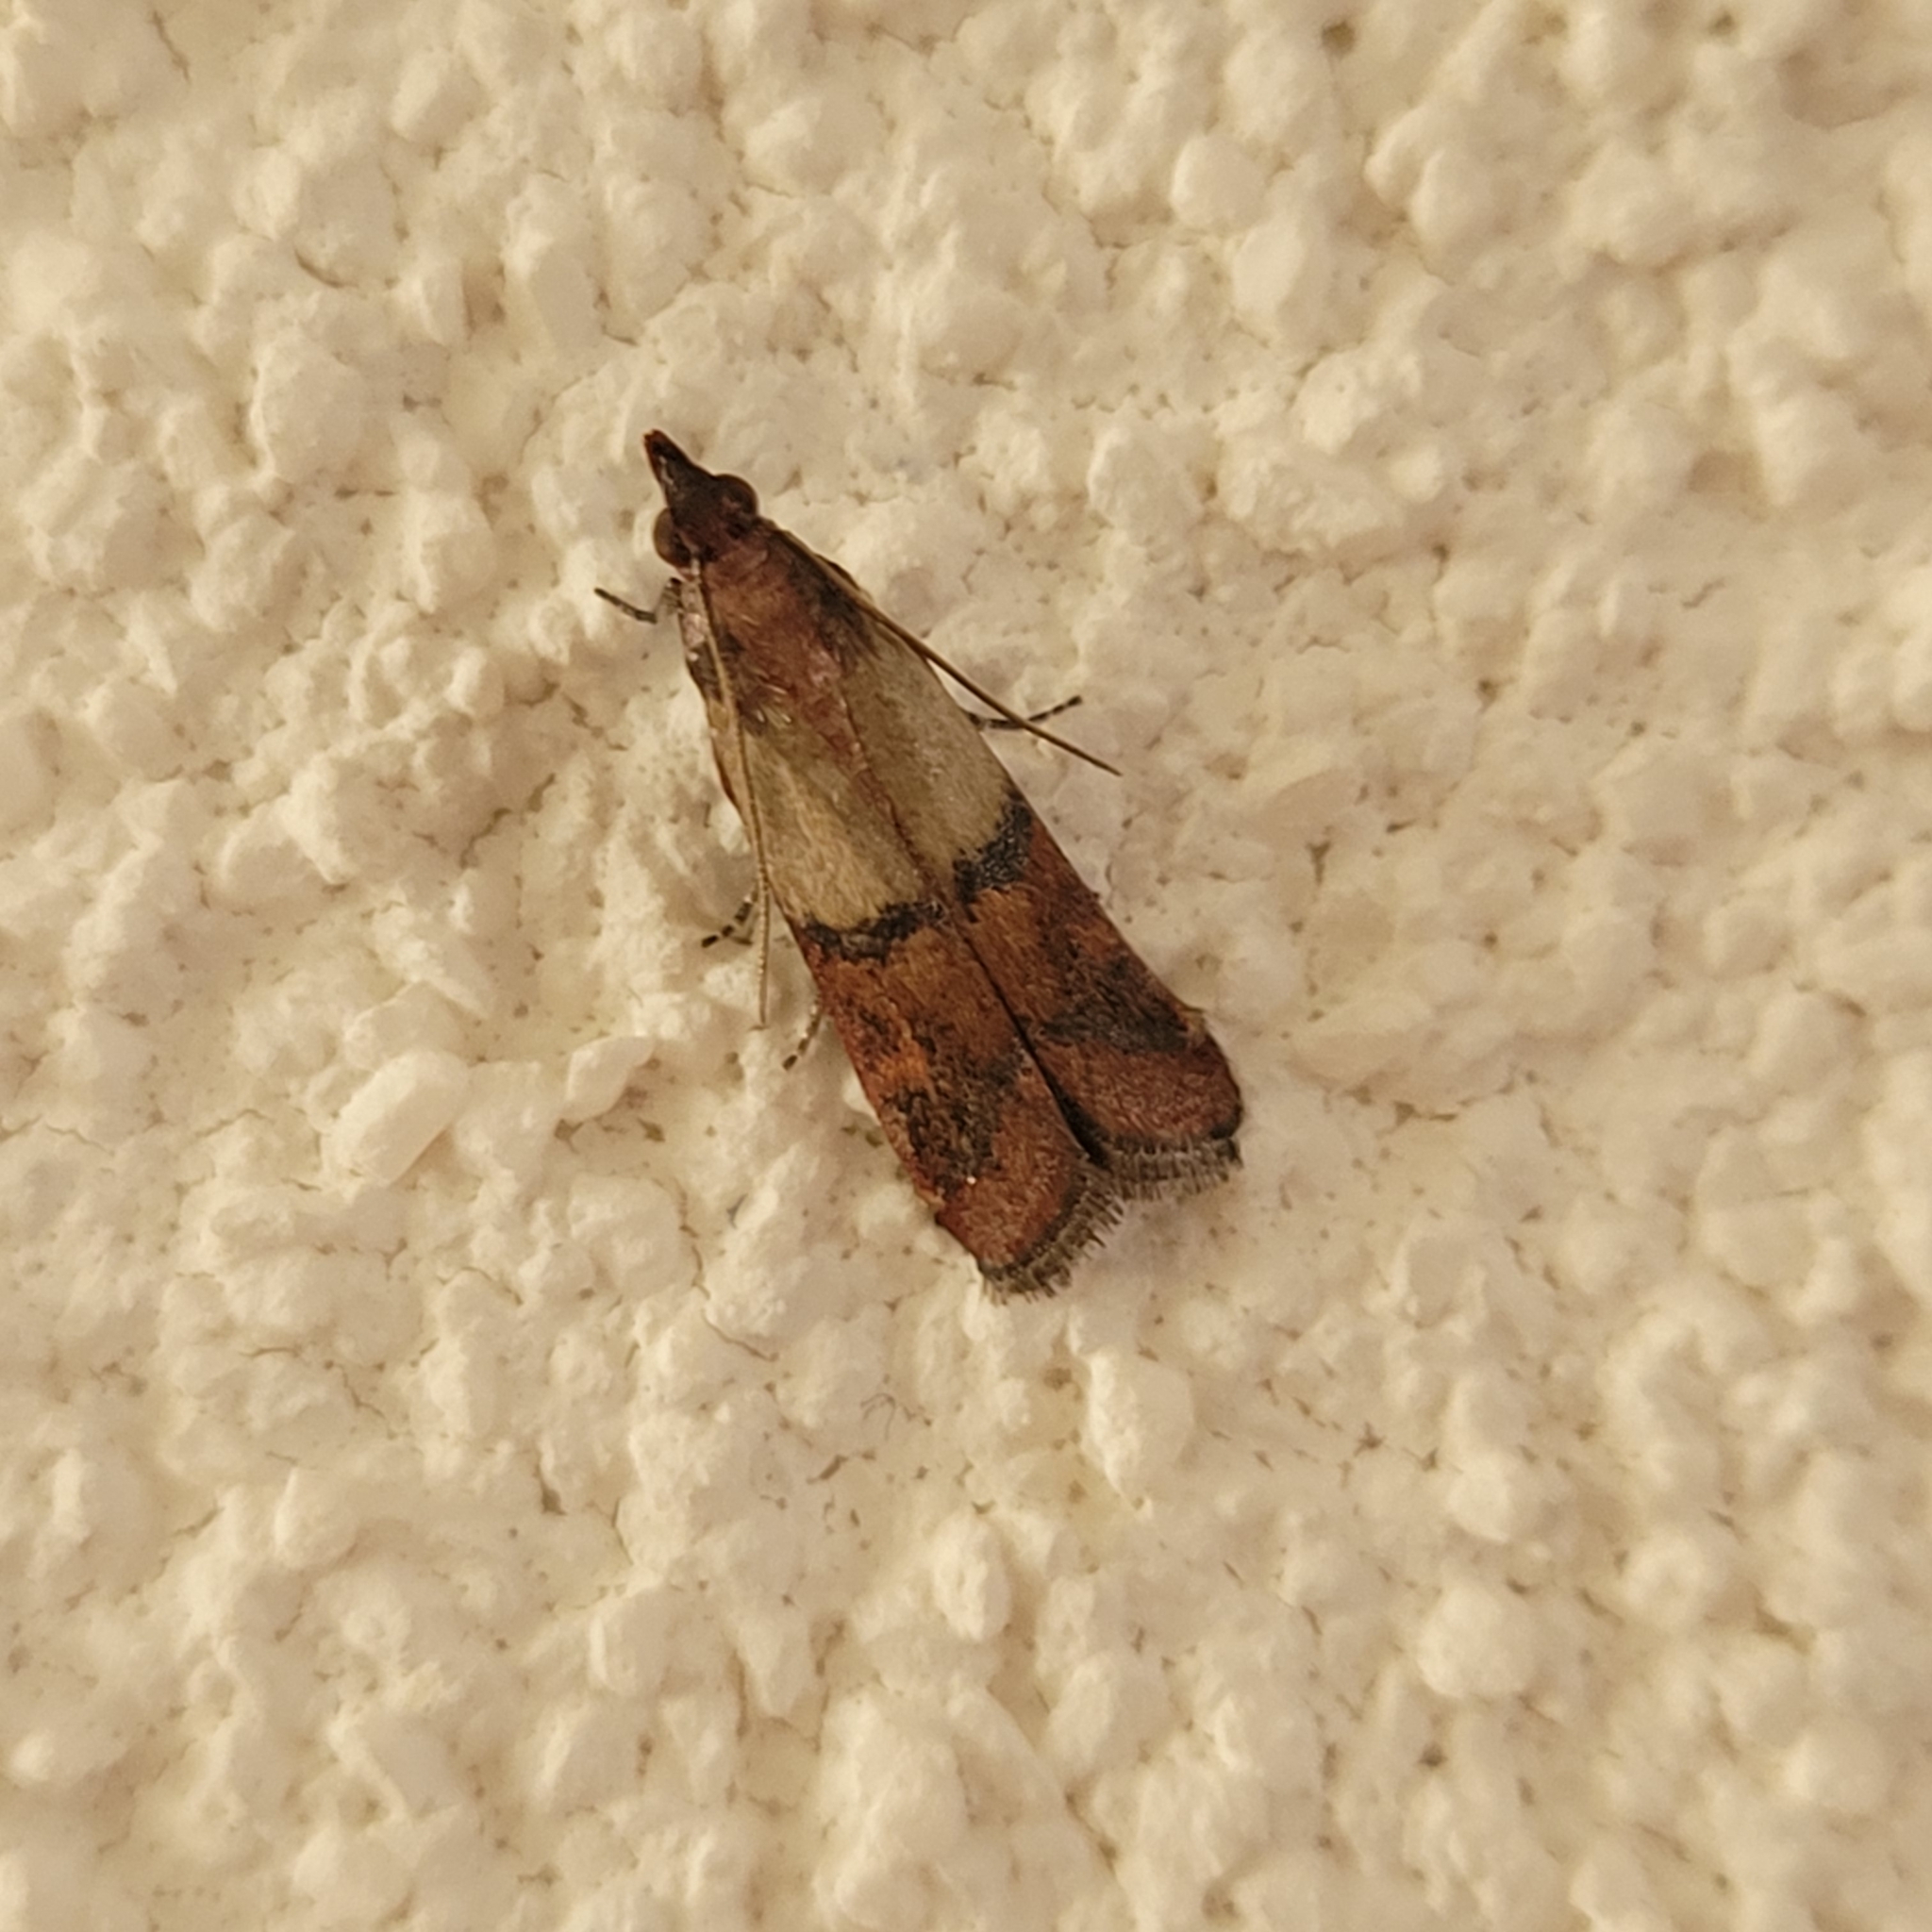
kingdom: Animalia
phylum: Arthropoda
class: Insecta
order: Lepidoptera
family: Pyralidae
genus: Plodia
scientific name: Plodia interpunctella
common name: Indian meal moth
